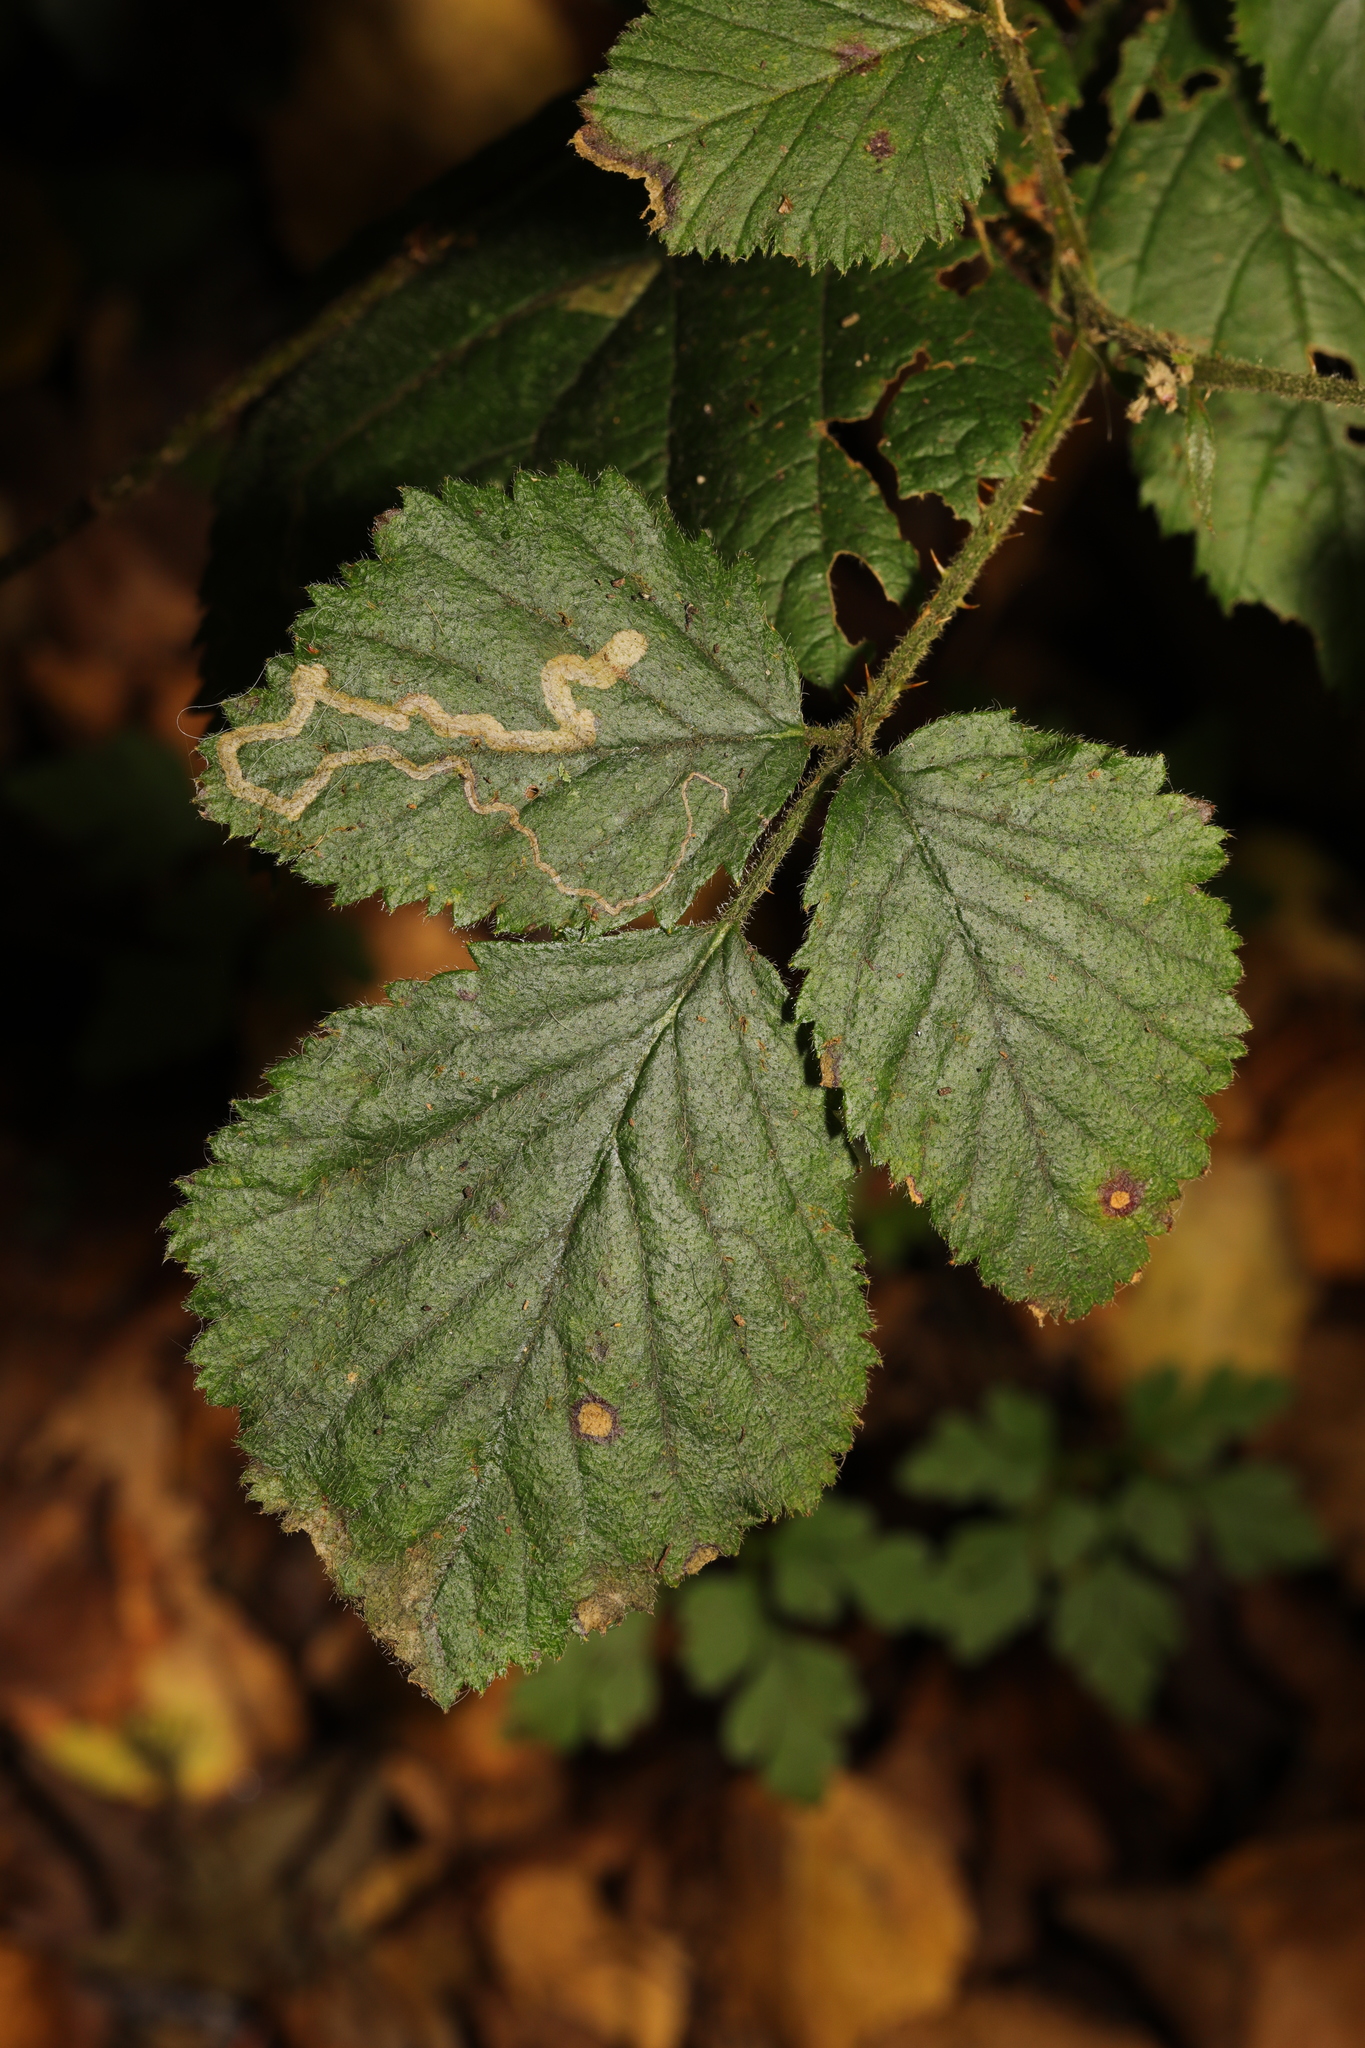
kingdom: Animalia
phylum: Arthropoda
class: Insecta
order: Lepidoptera
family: Nepticulidae
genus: Stigmella
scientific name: Stigmella aurella
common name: Golden pigmy
